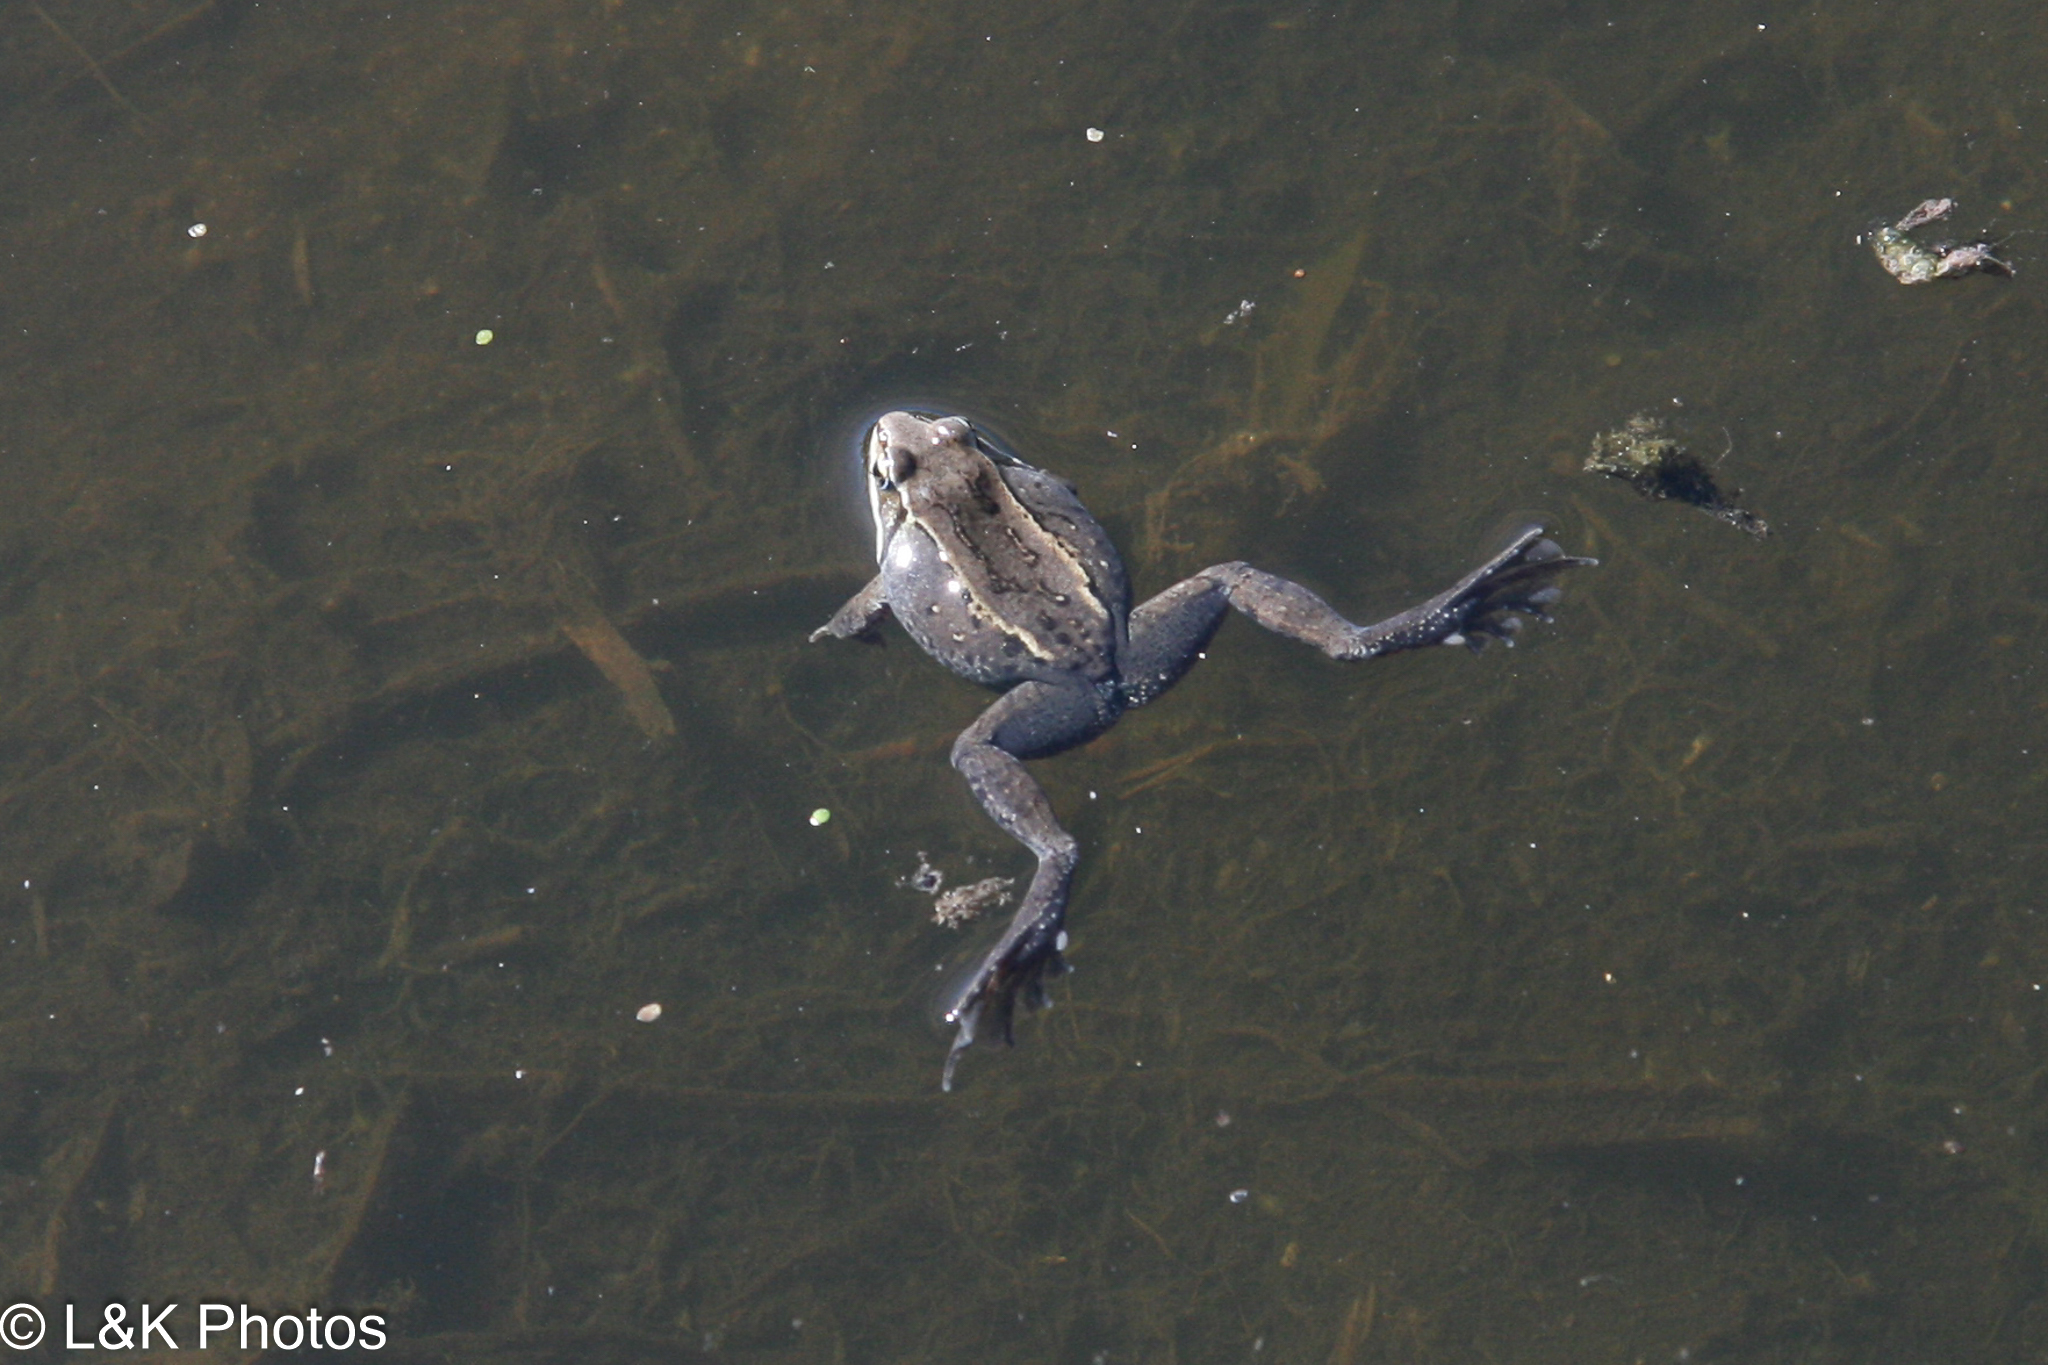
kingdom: Animalia
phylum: Chordata
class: Amphibia
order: Anura
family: Ranidae
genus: Lithobates
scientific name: Lithobates sylvaticus
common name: Wood frog
